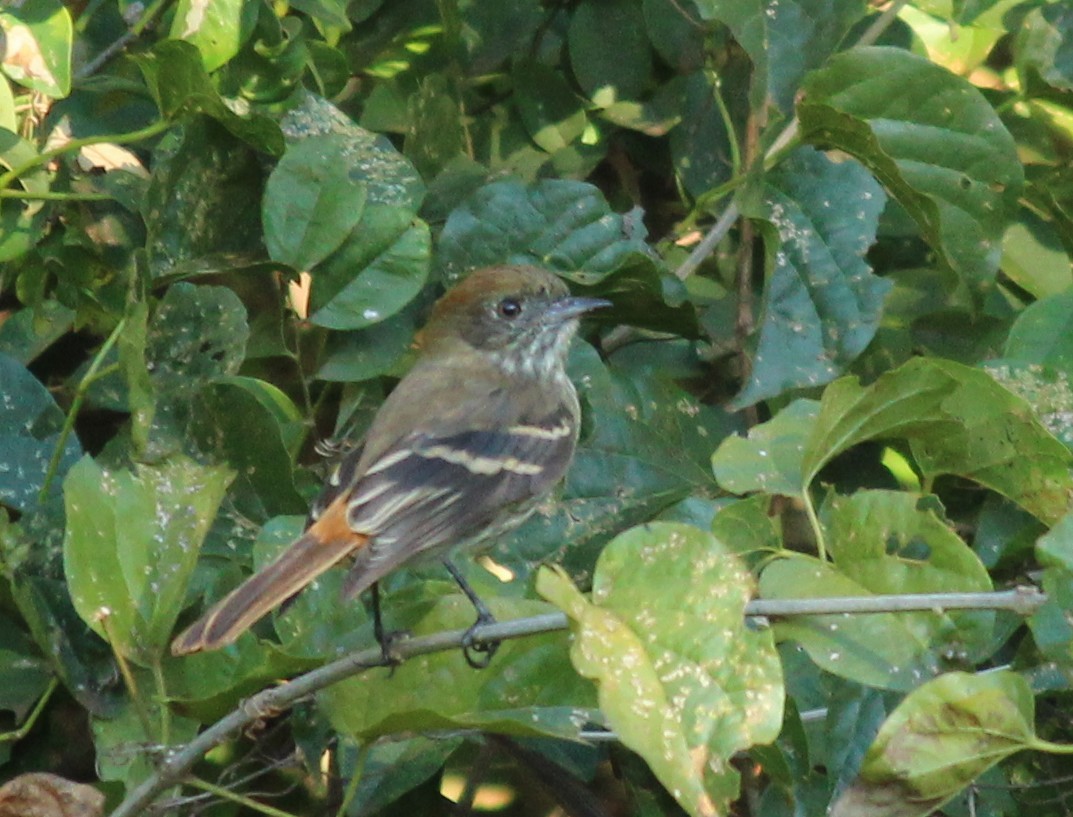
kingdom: Animalia
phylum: Chordata
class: Aves
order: Passeriformes
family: Tyrannidae
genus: Knipolegus
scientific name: Knipolegus cyanirostris
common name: Blue-billed black tyrant
